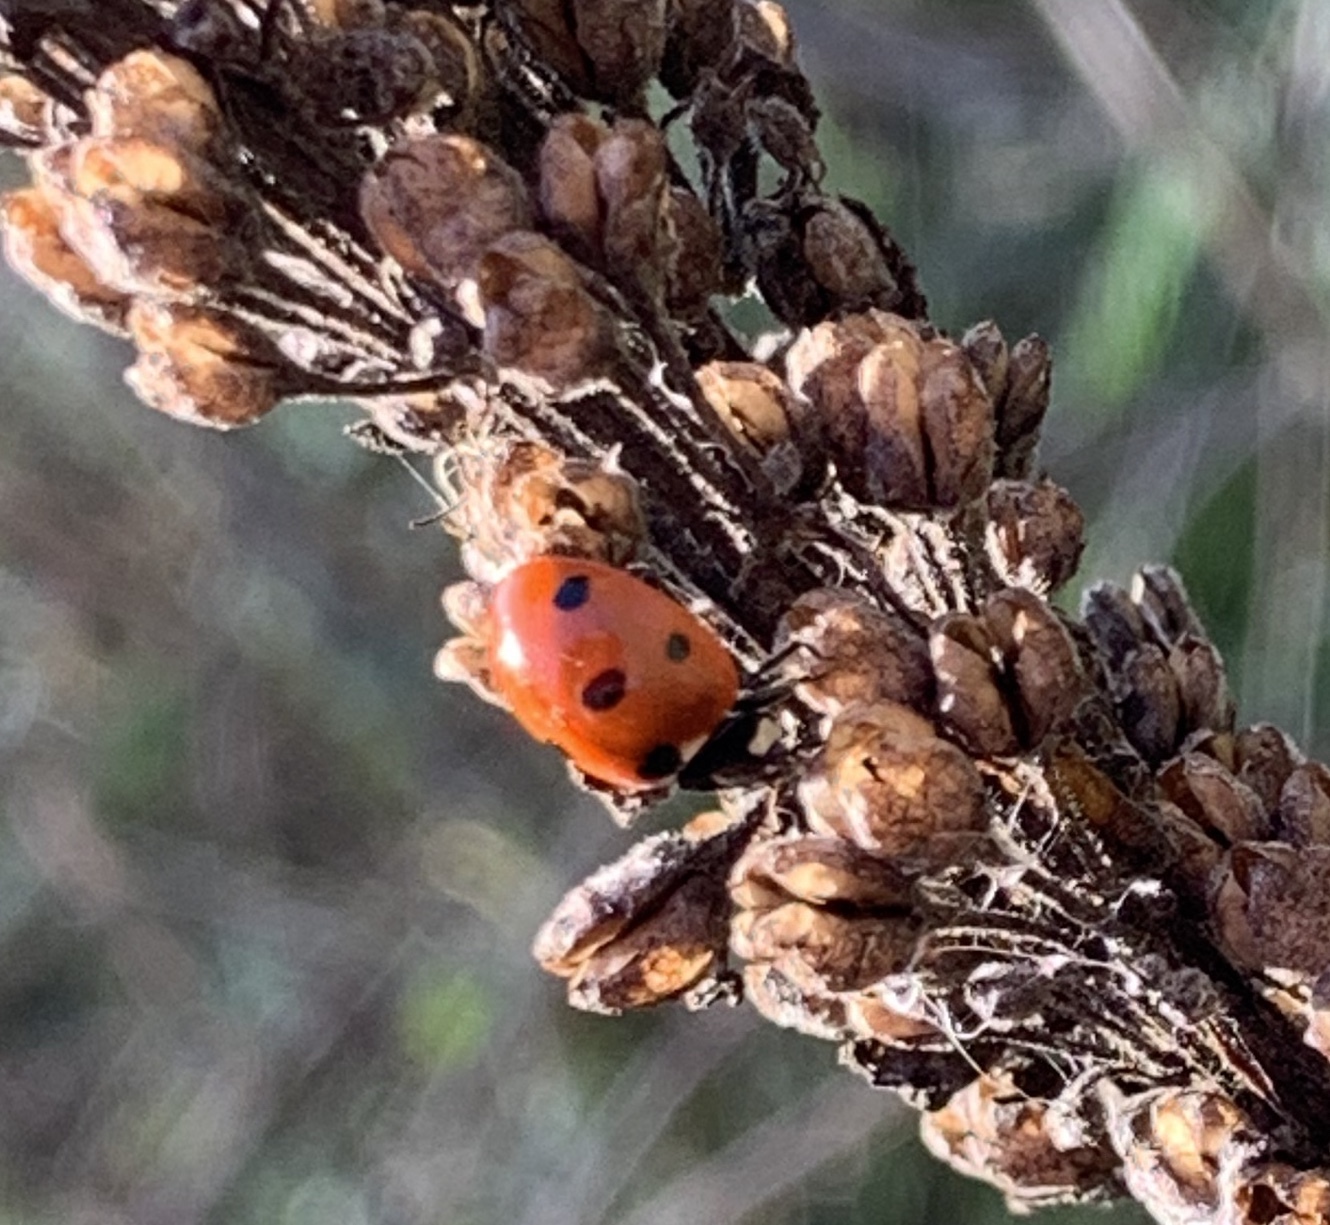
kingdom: Animalia
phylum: Arthropoda
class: Insecta
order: Coleoptera
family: Coccinellidae
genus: Coccinella
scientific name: Coccinella septempunctata
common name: Sevenspotted lady beetle
